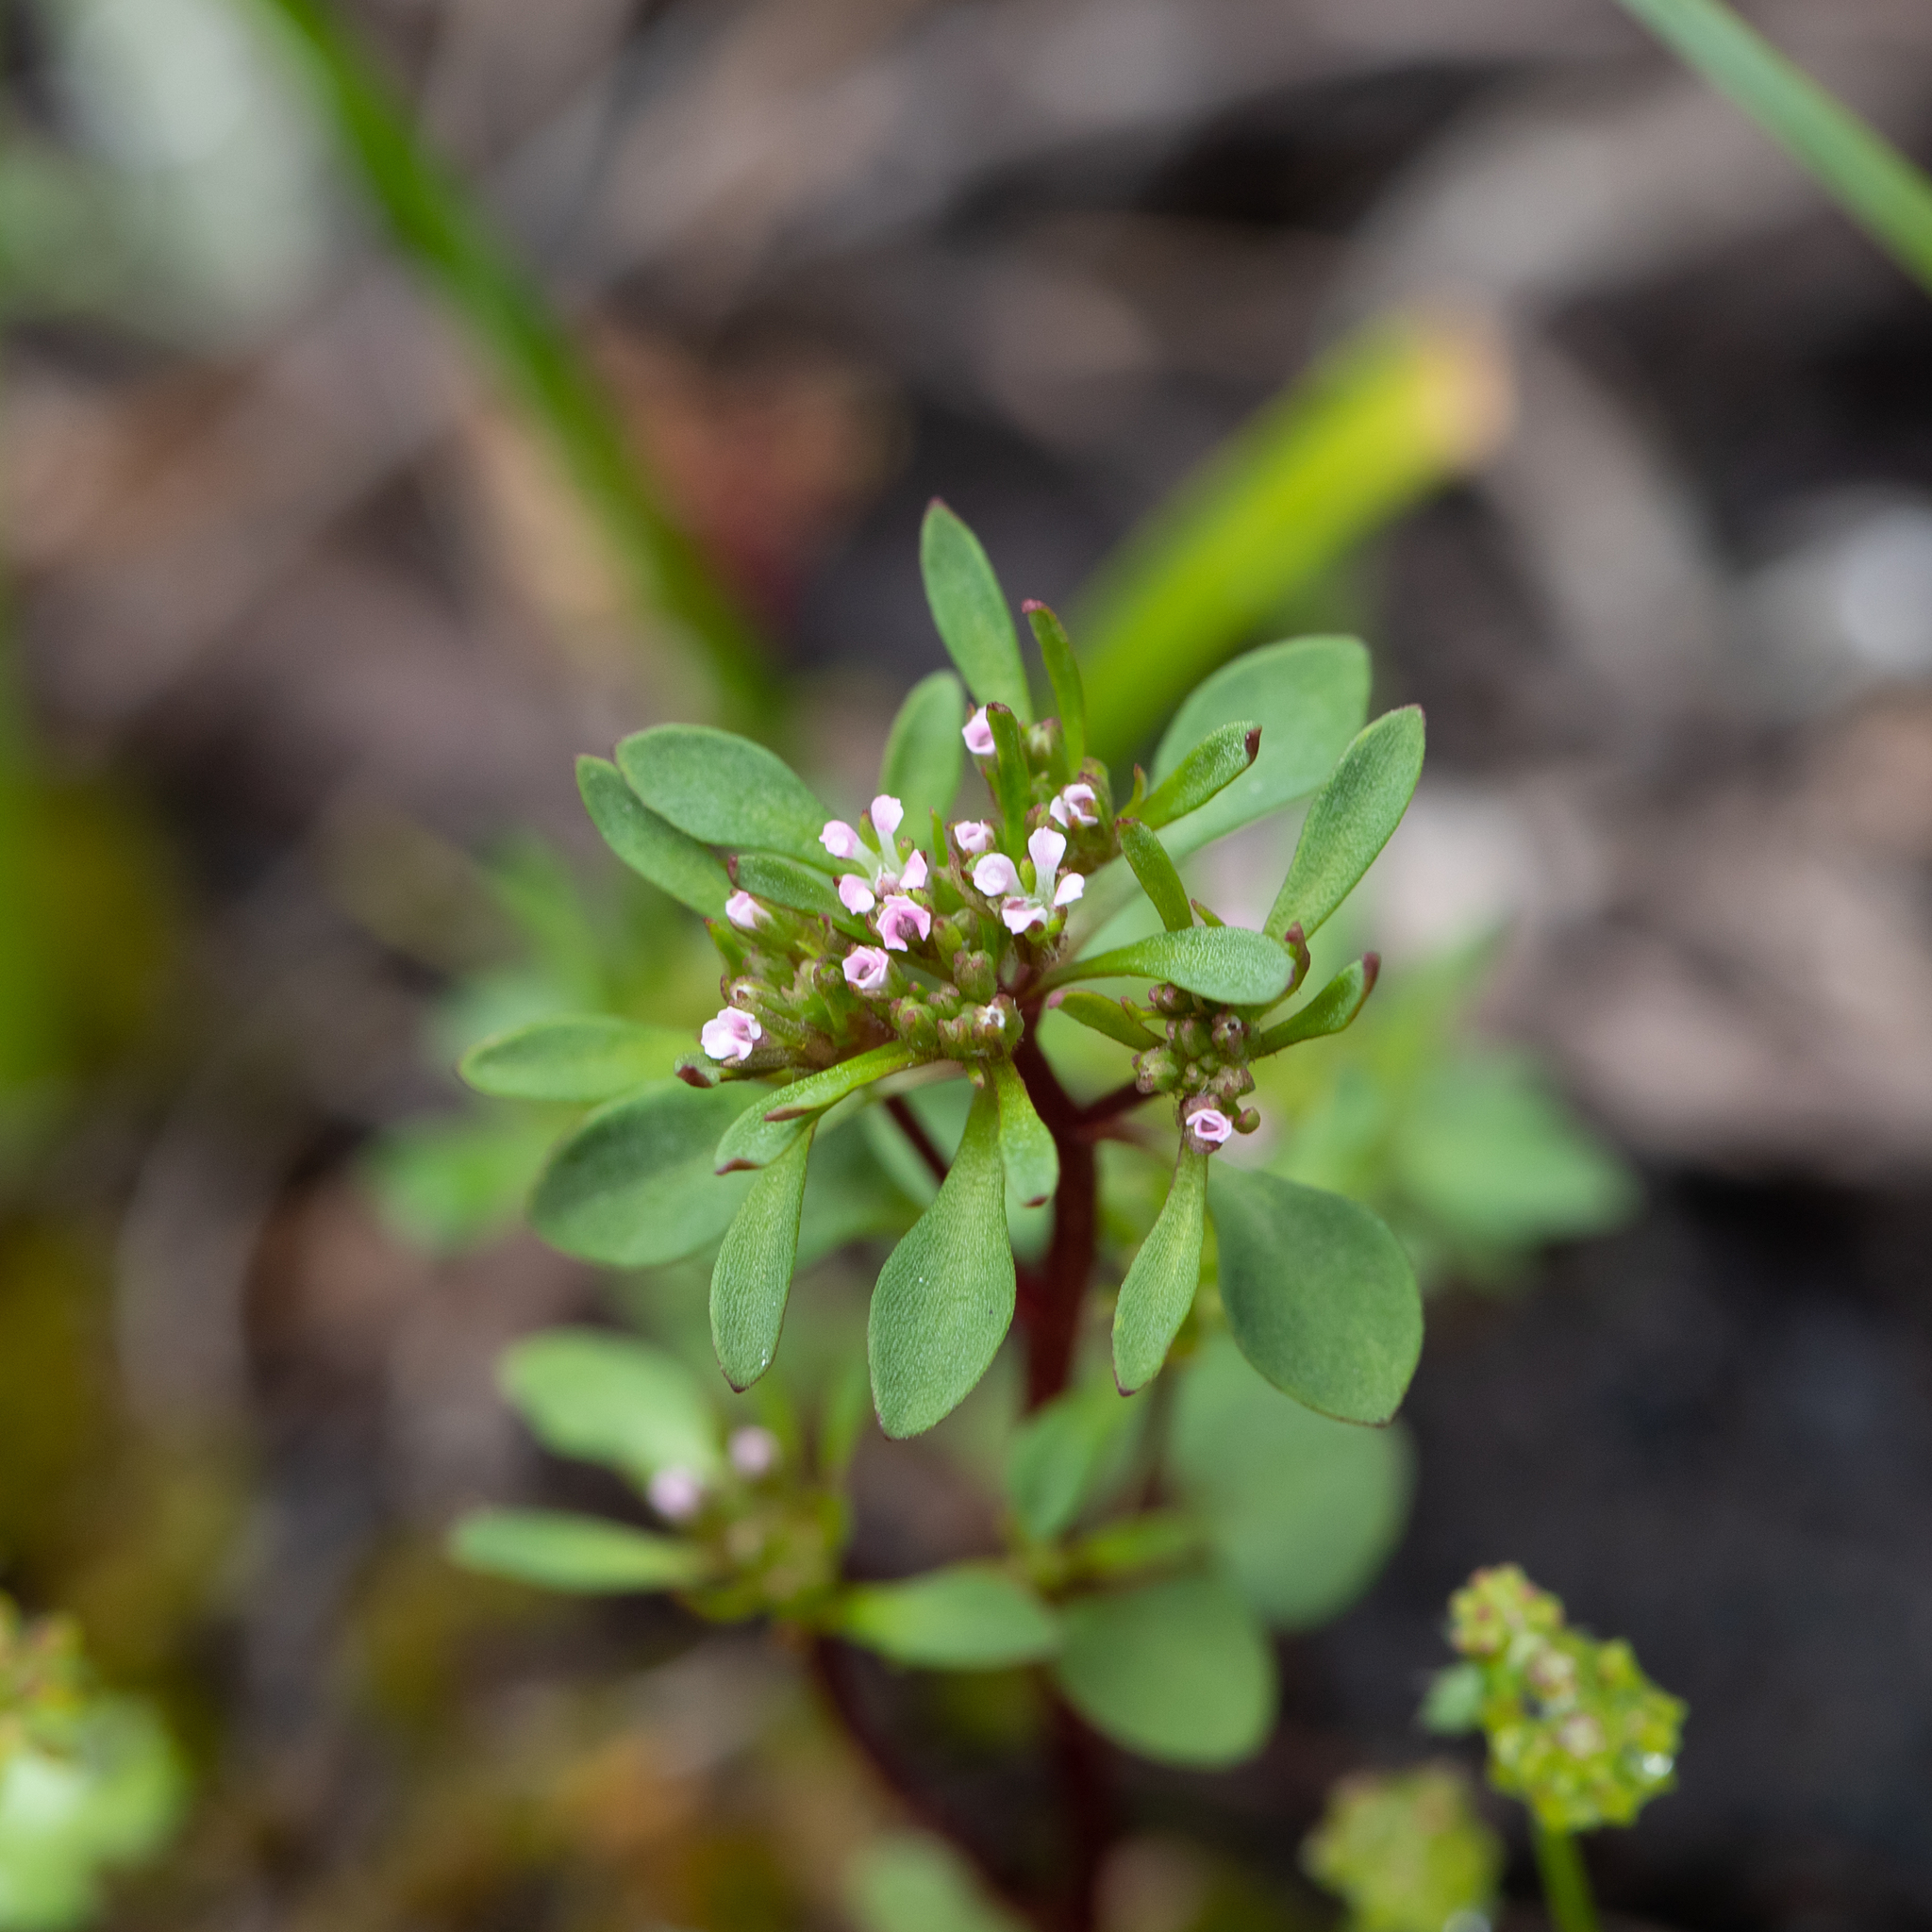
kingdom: Plantae
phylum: Tracheophyta
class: Magnoliopsida
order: Asterales
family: Stylidiaceae
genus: Levenhookia
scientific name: Levenhookia pusilla
